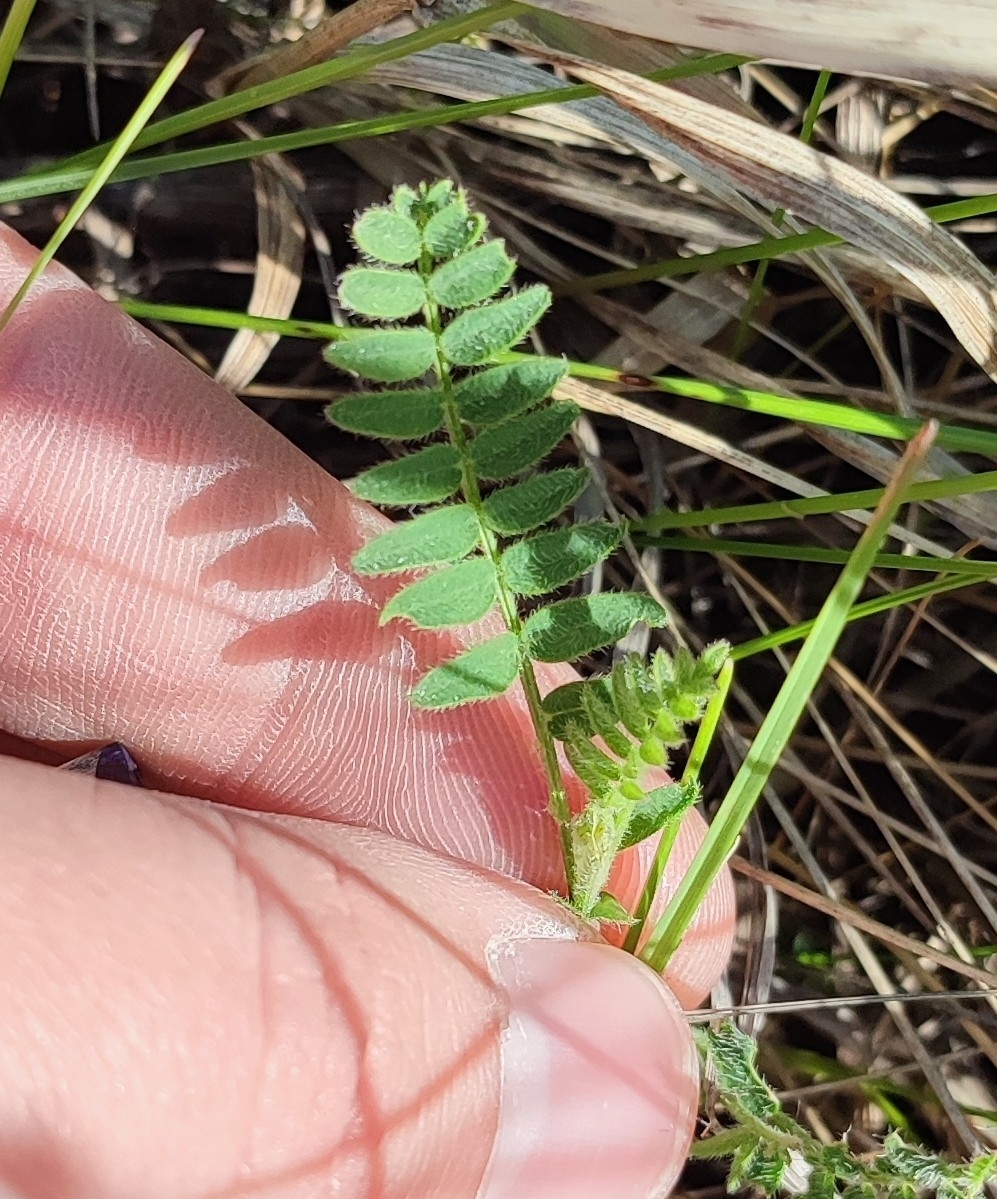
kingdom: Plantae
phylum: Tracheophyta
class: Magnoliopsida
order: Fabales
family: Fabaceae
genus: Astragalus
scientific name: Astragalus danicus
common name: Purple milk-vetch
